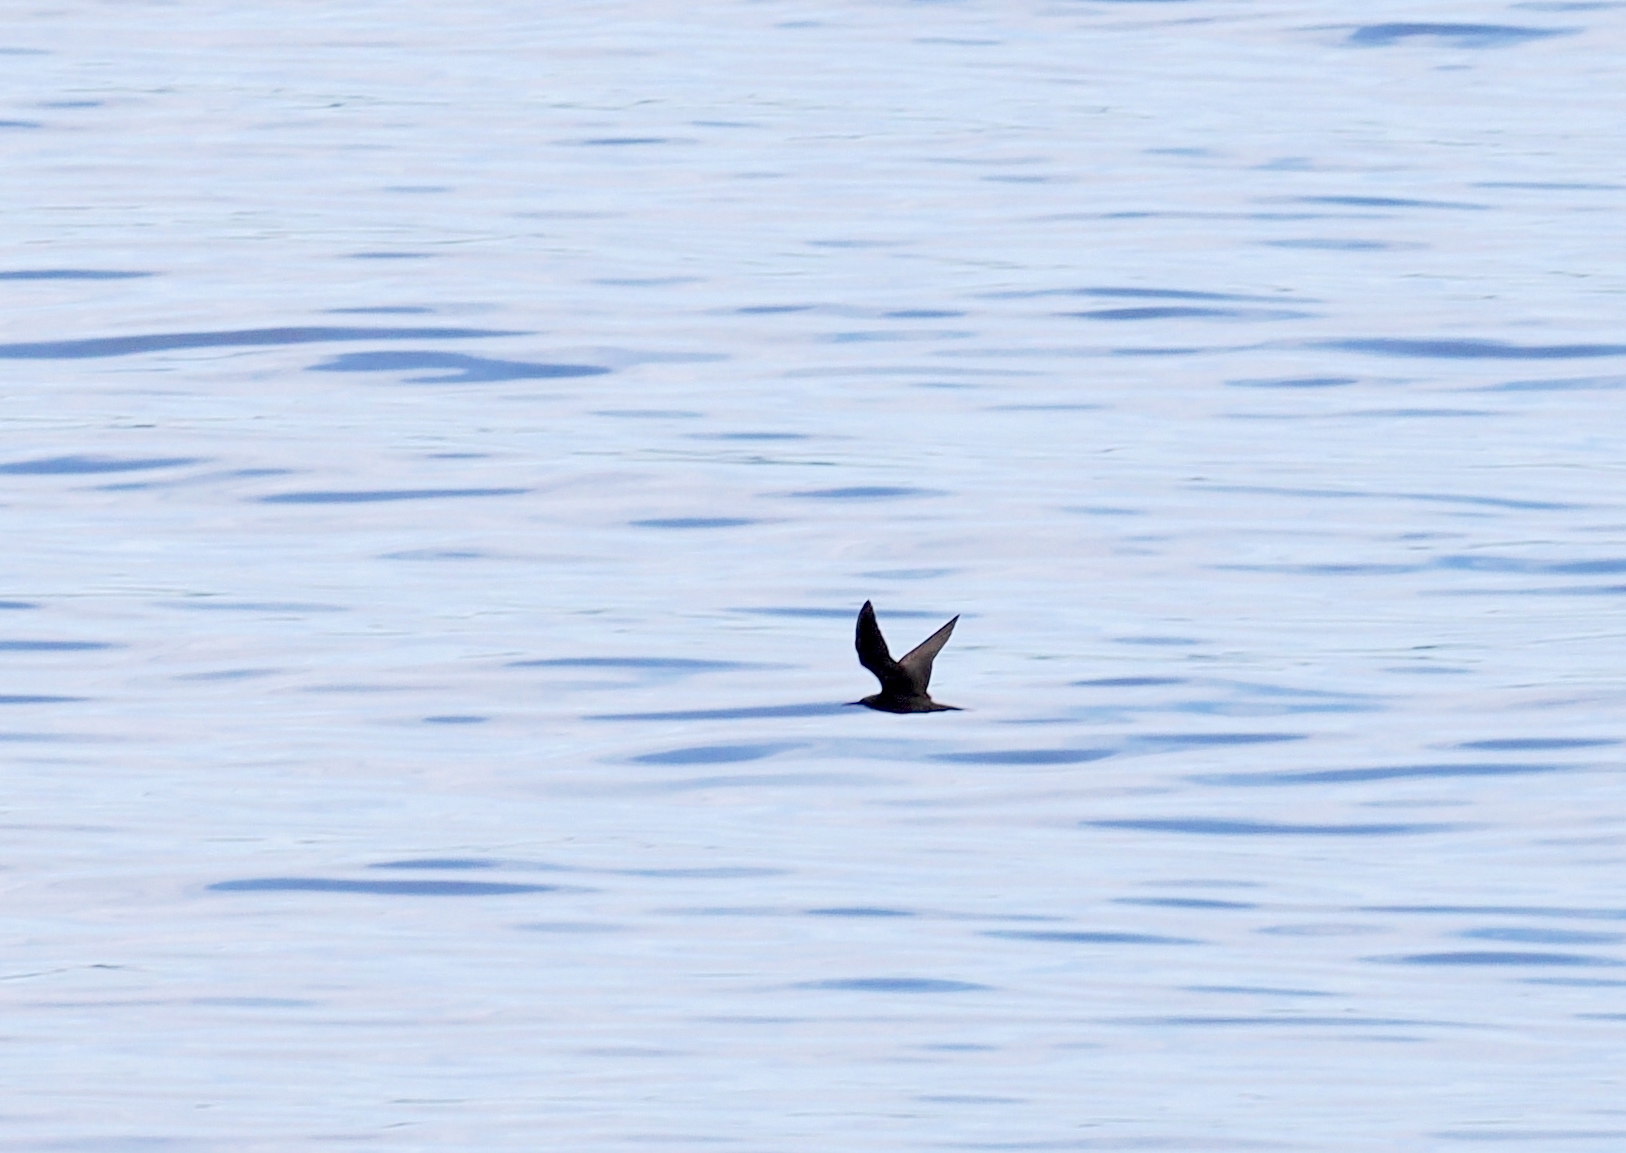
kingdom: Animalia
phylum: Chordata
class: Aves
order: Charadriiformes
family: Laridae
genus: Anous
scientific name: Anous minutus
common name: Black noddy
